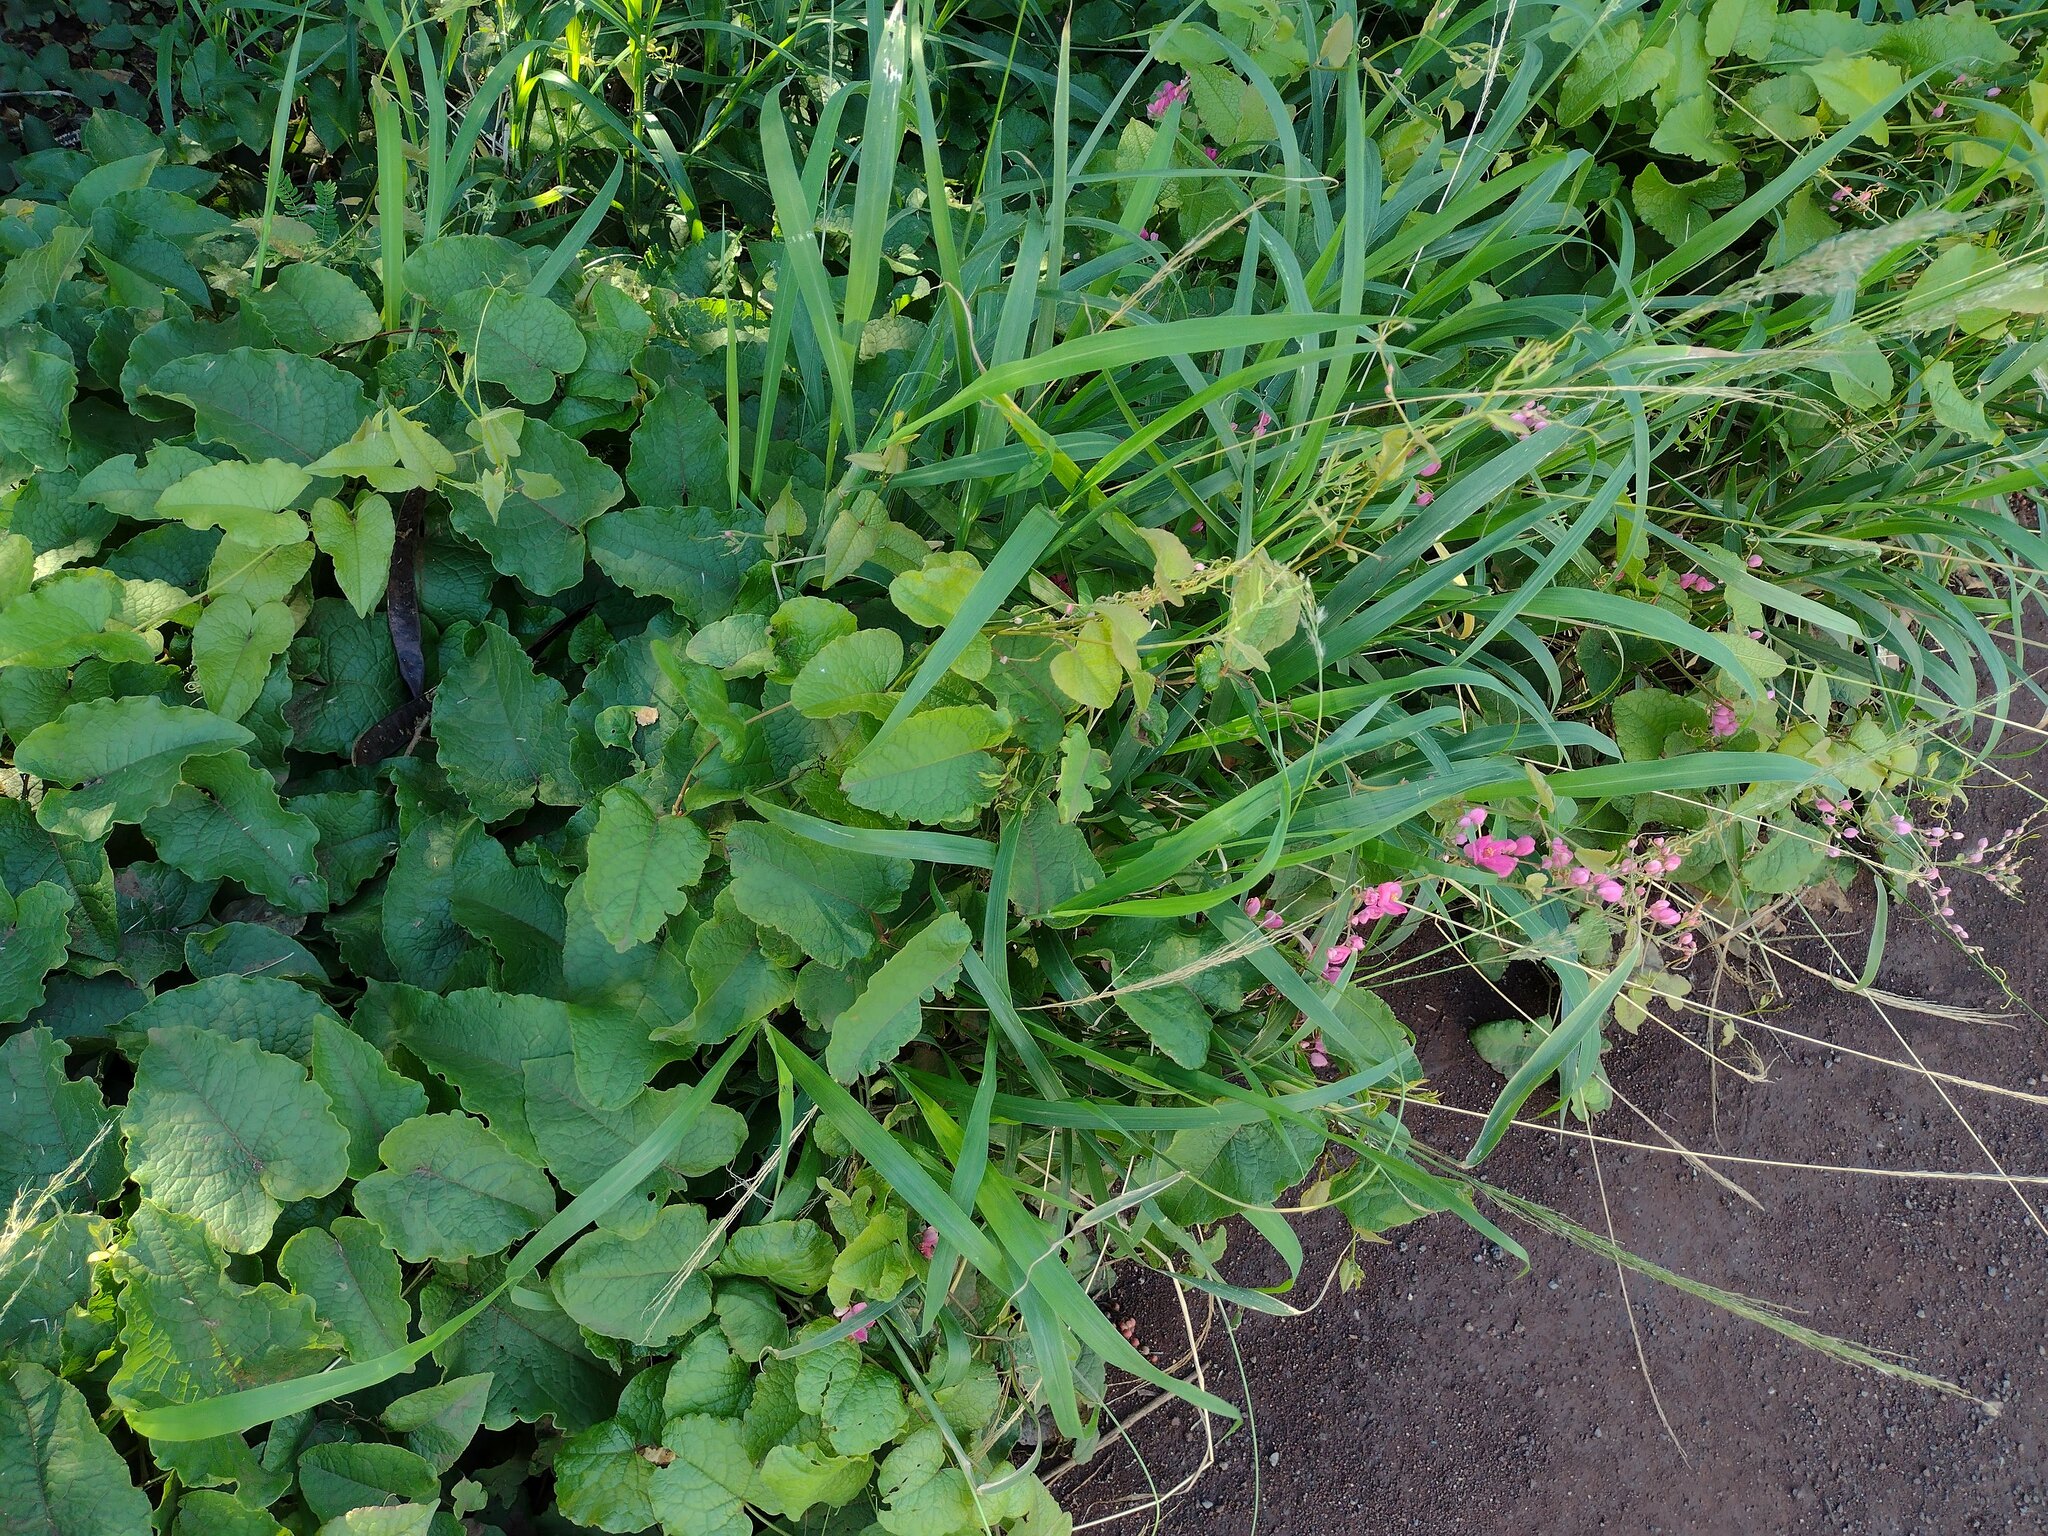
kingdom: Plantae
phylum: Tracheophyta
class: Magnoliopsida
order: Caryophyllales
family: Polygonaceae
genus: Antigonon
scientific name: Antigonon leptopus
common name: Coral vine
